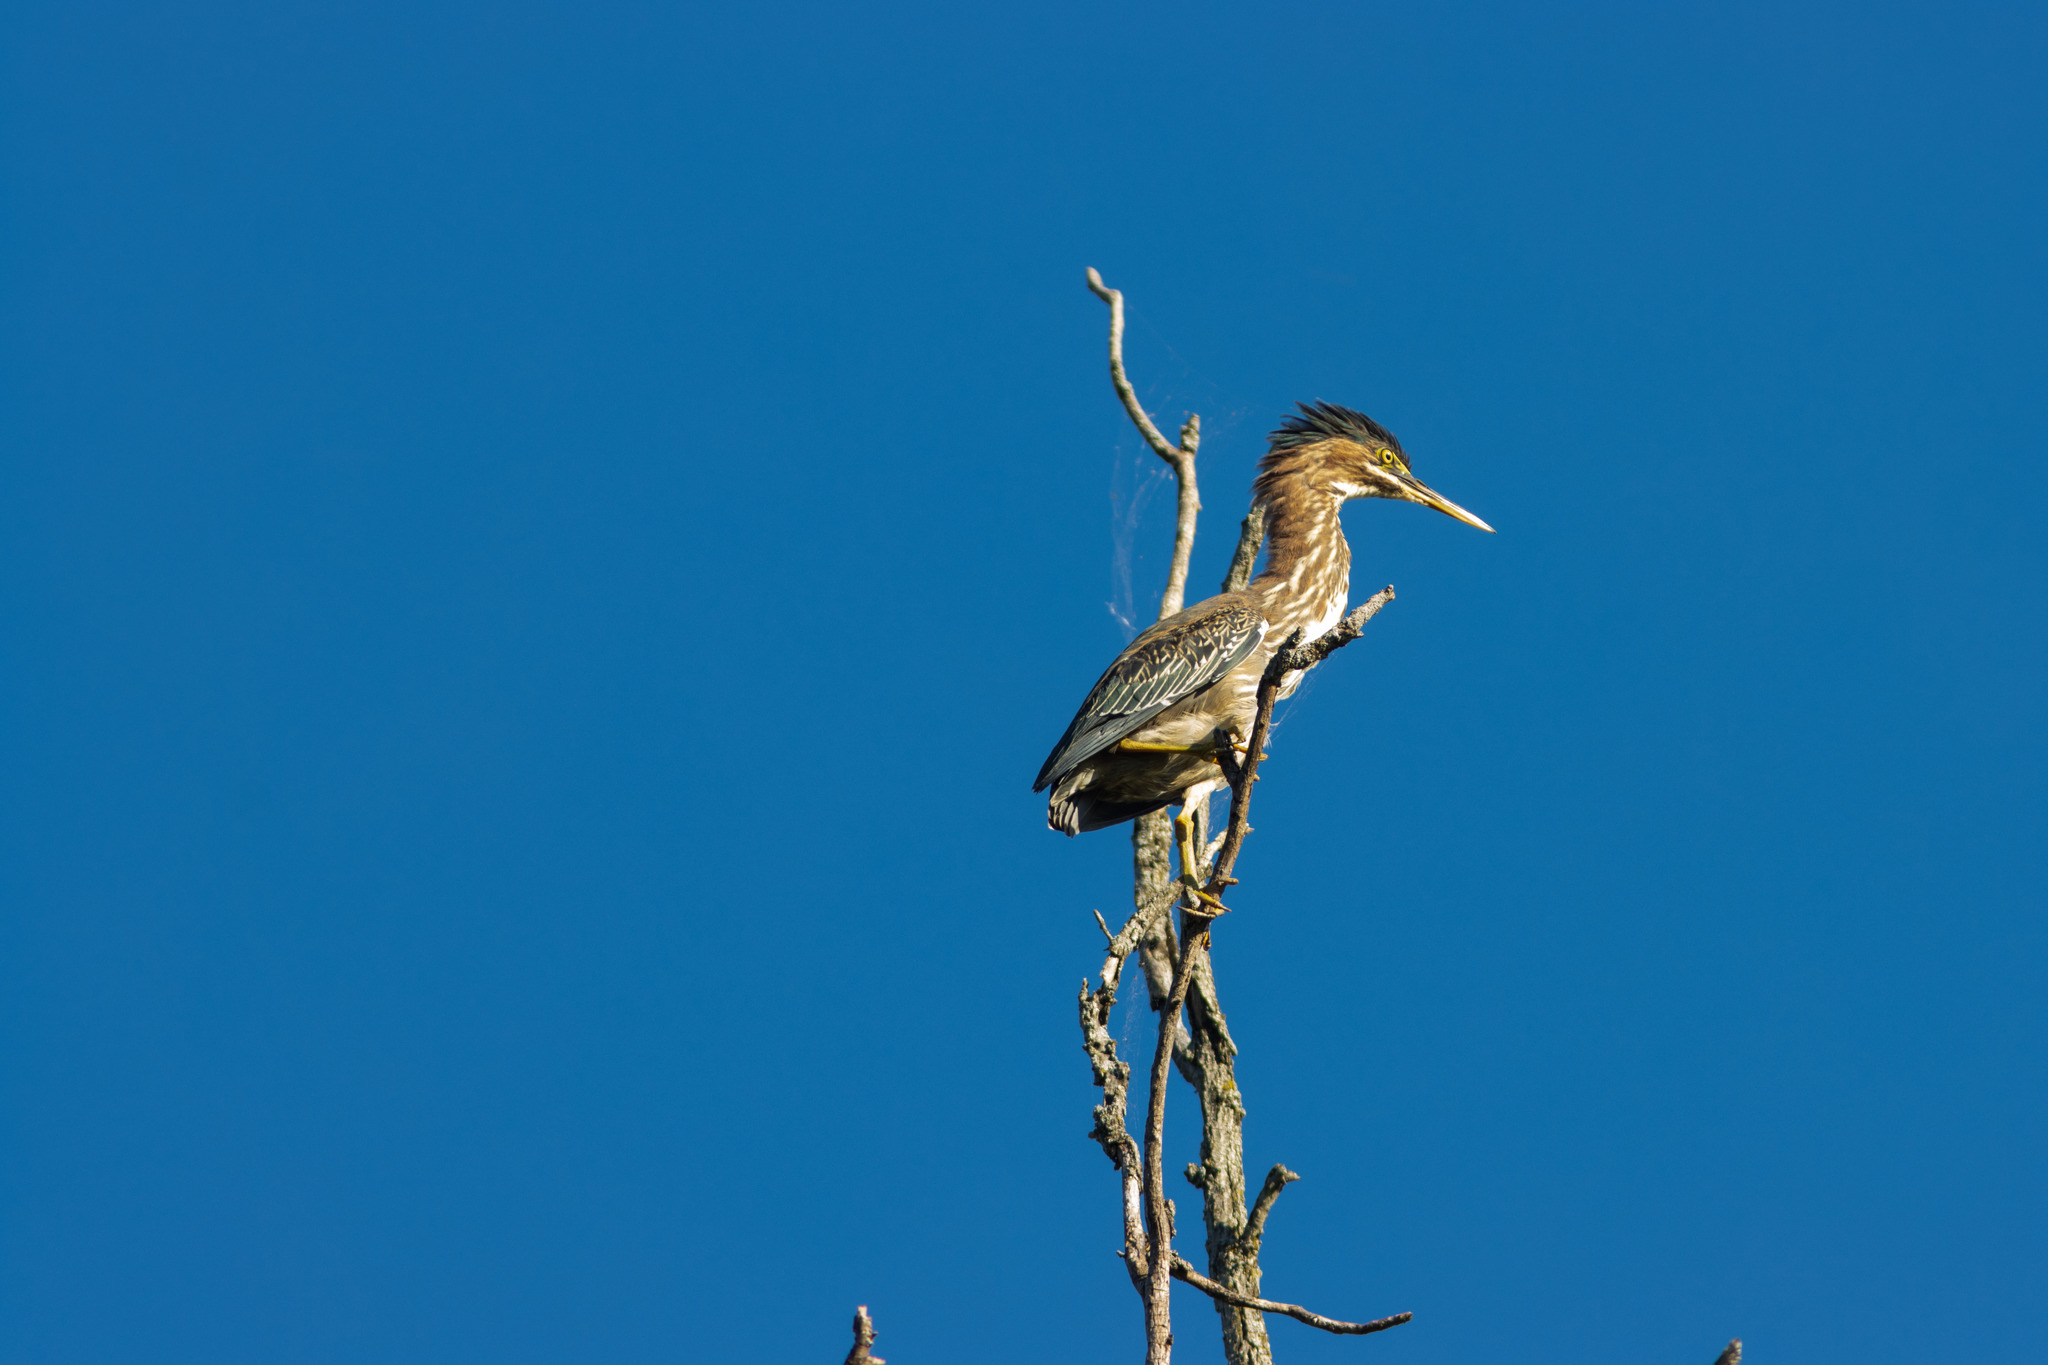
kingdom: Animalia
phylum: Chordata
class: Aves
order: Pelecaniformes
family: Ardeidae
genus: Butorides
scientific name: Butorides virescens
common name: Green heron
